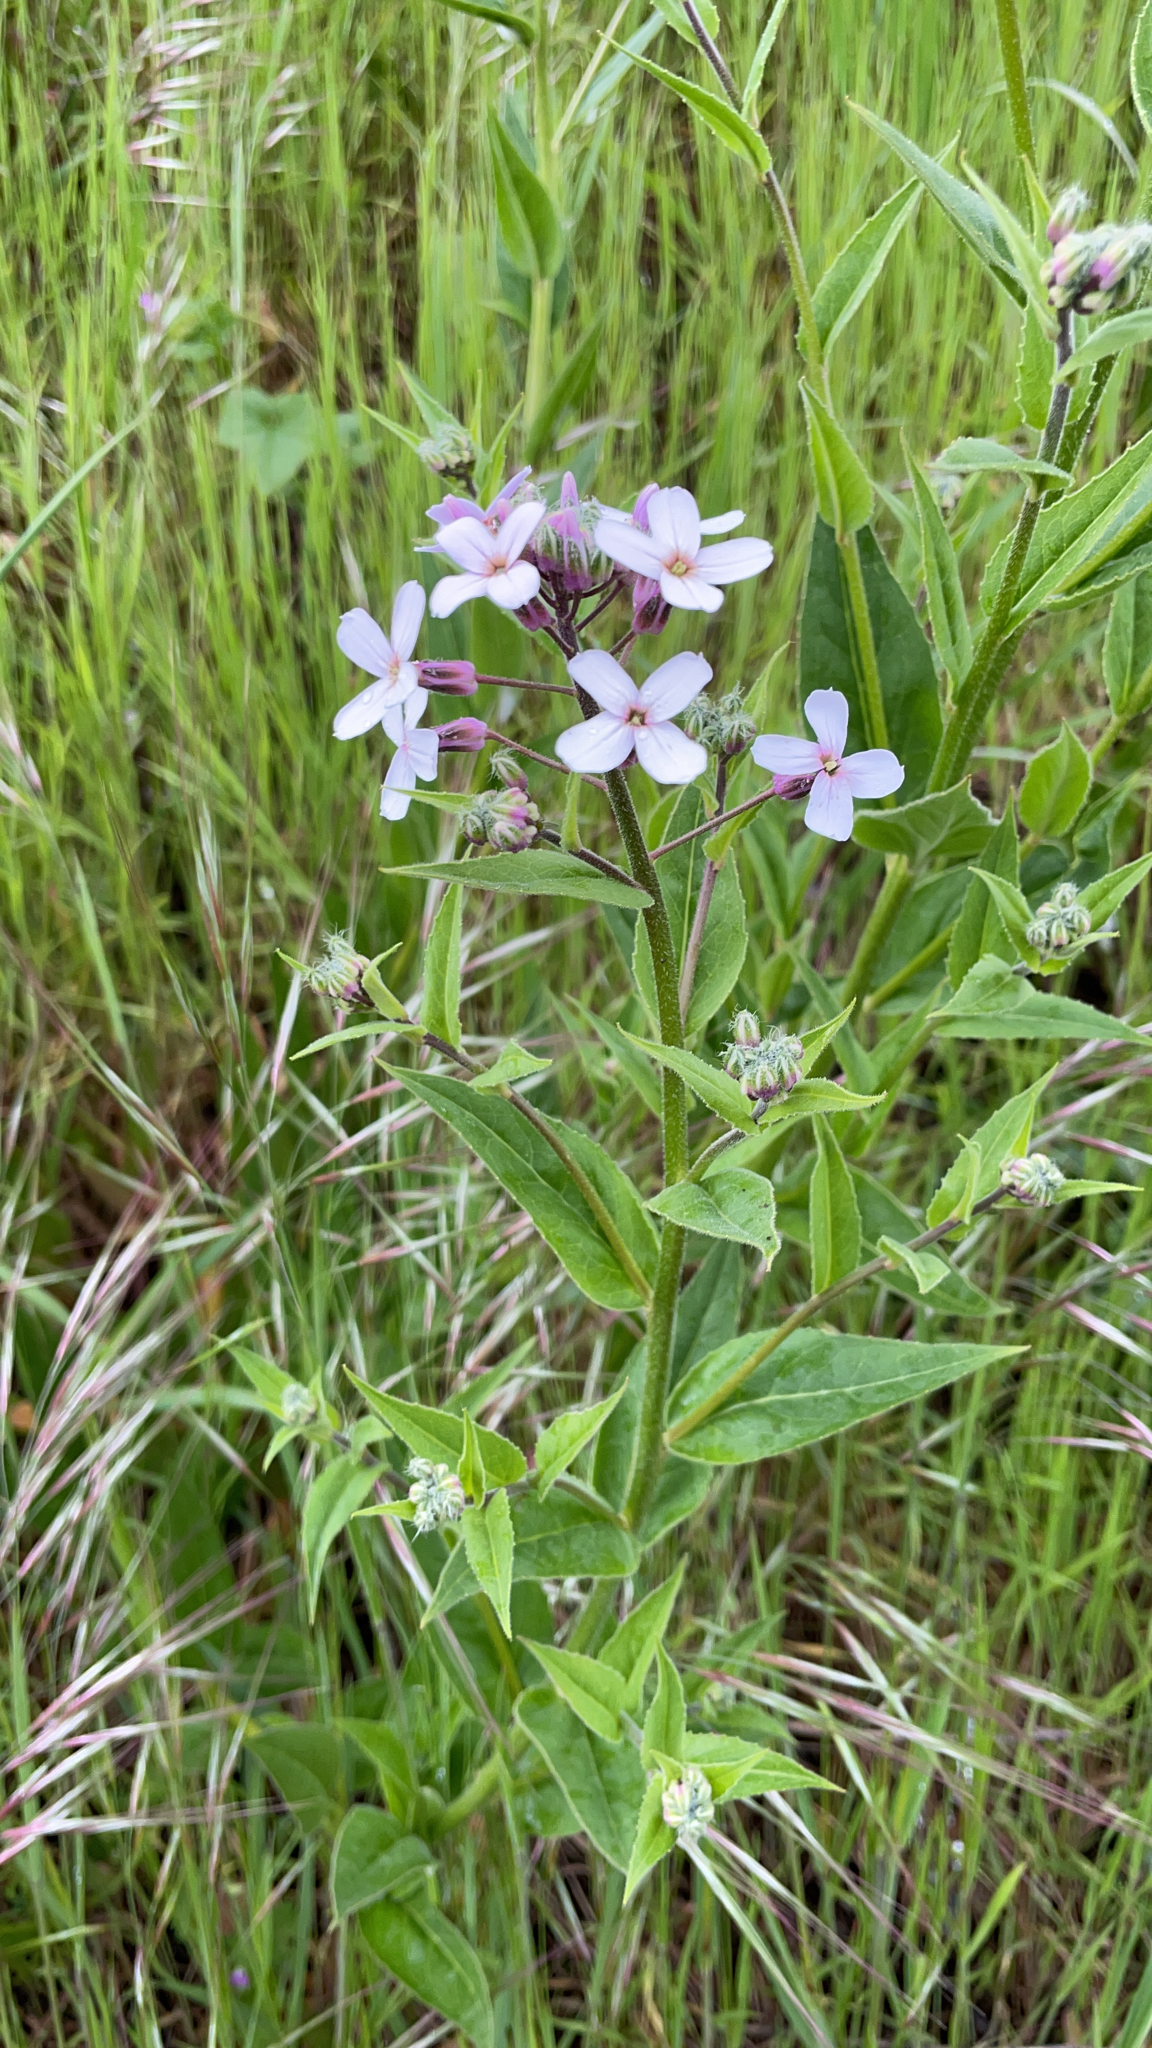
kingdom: Plantae
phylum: Tracheophyta
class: Magnoliopsida
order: Brassicales
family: Brassicaceae
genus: Hesperis
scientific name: Hesperis matronalis
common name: Dame's-violet
